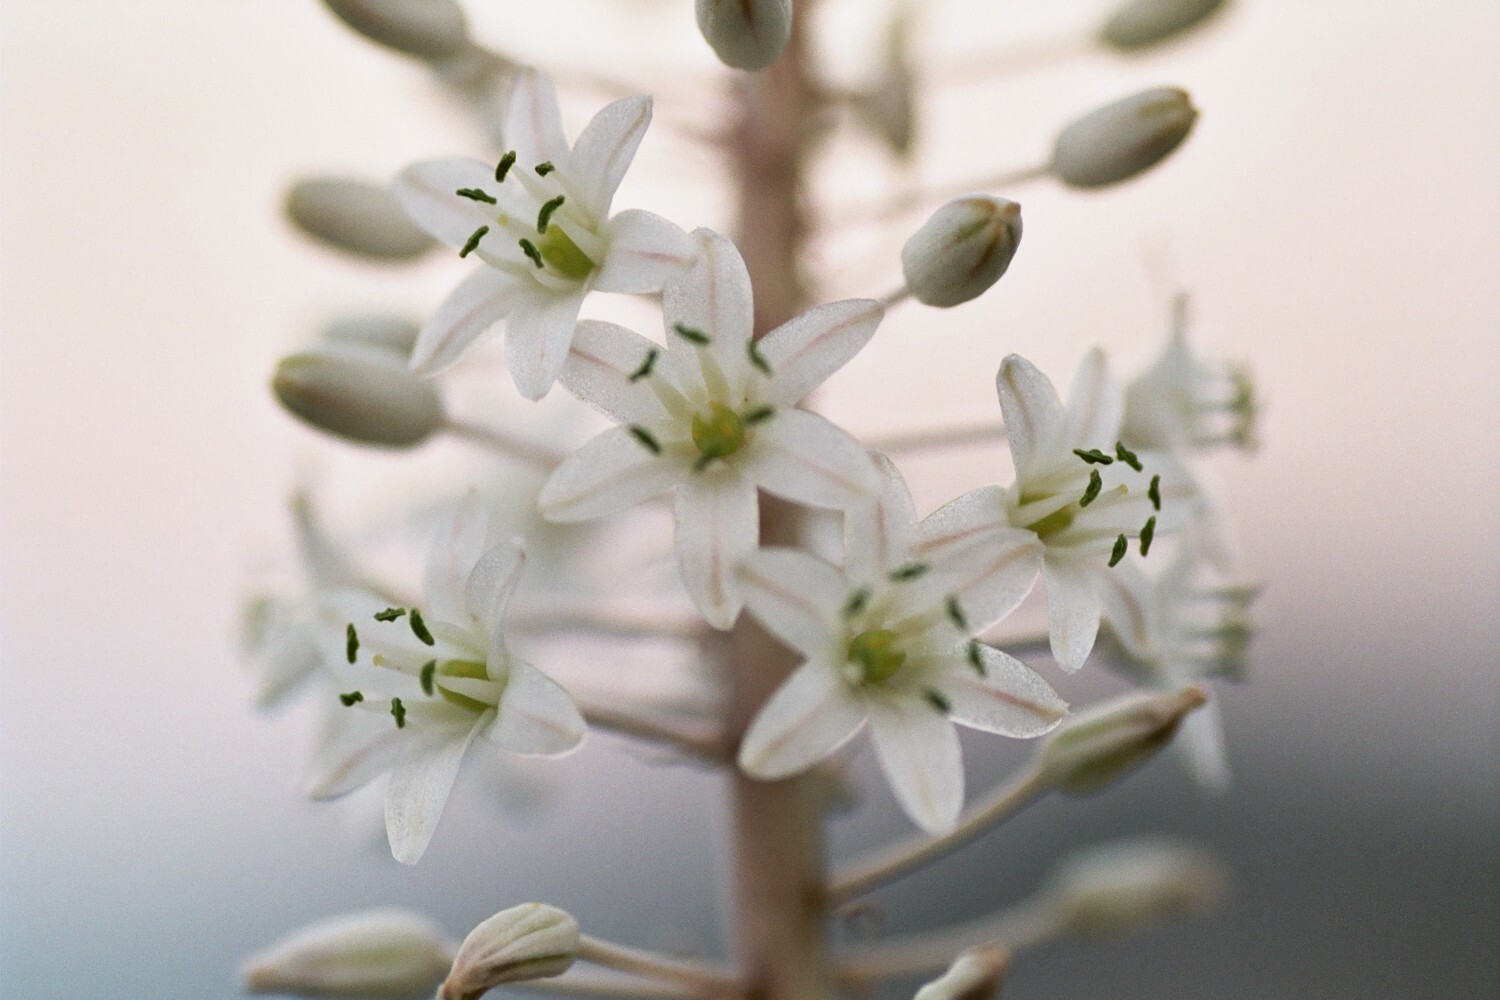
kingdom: Plantae
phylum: Tracheophyta
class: Liliopsida
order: Asparagales
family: Asparagaceae
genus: Drimia
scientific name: Drimia numidica
